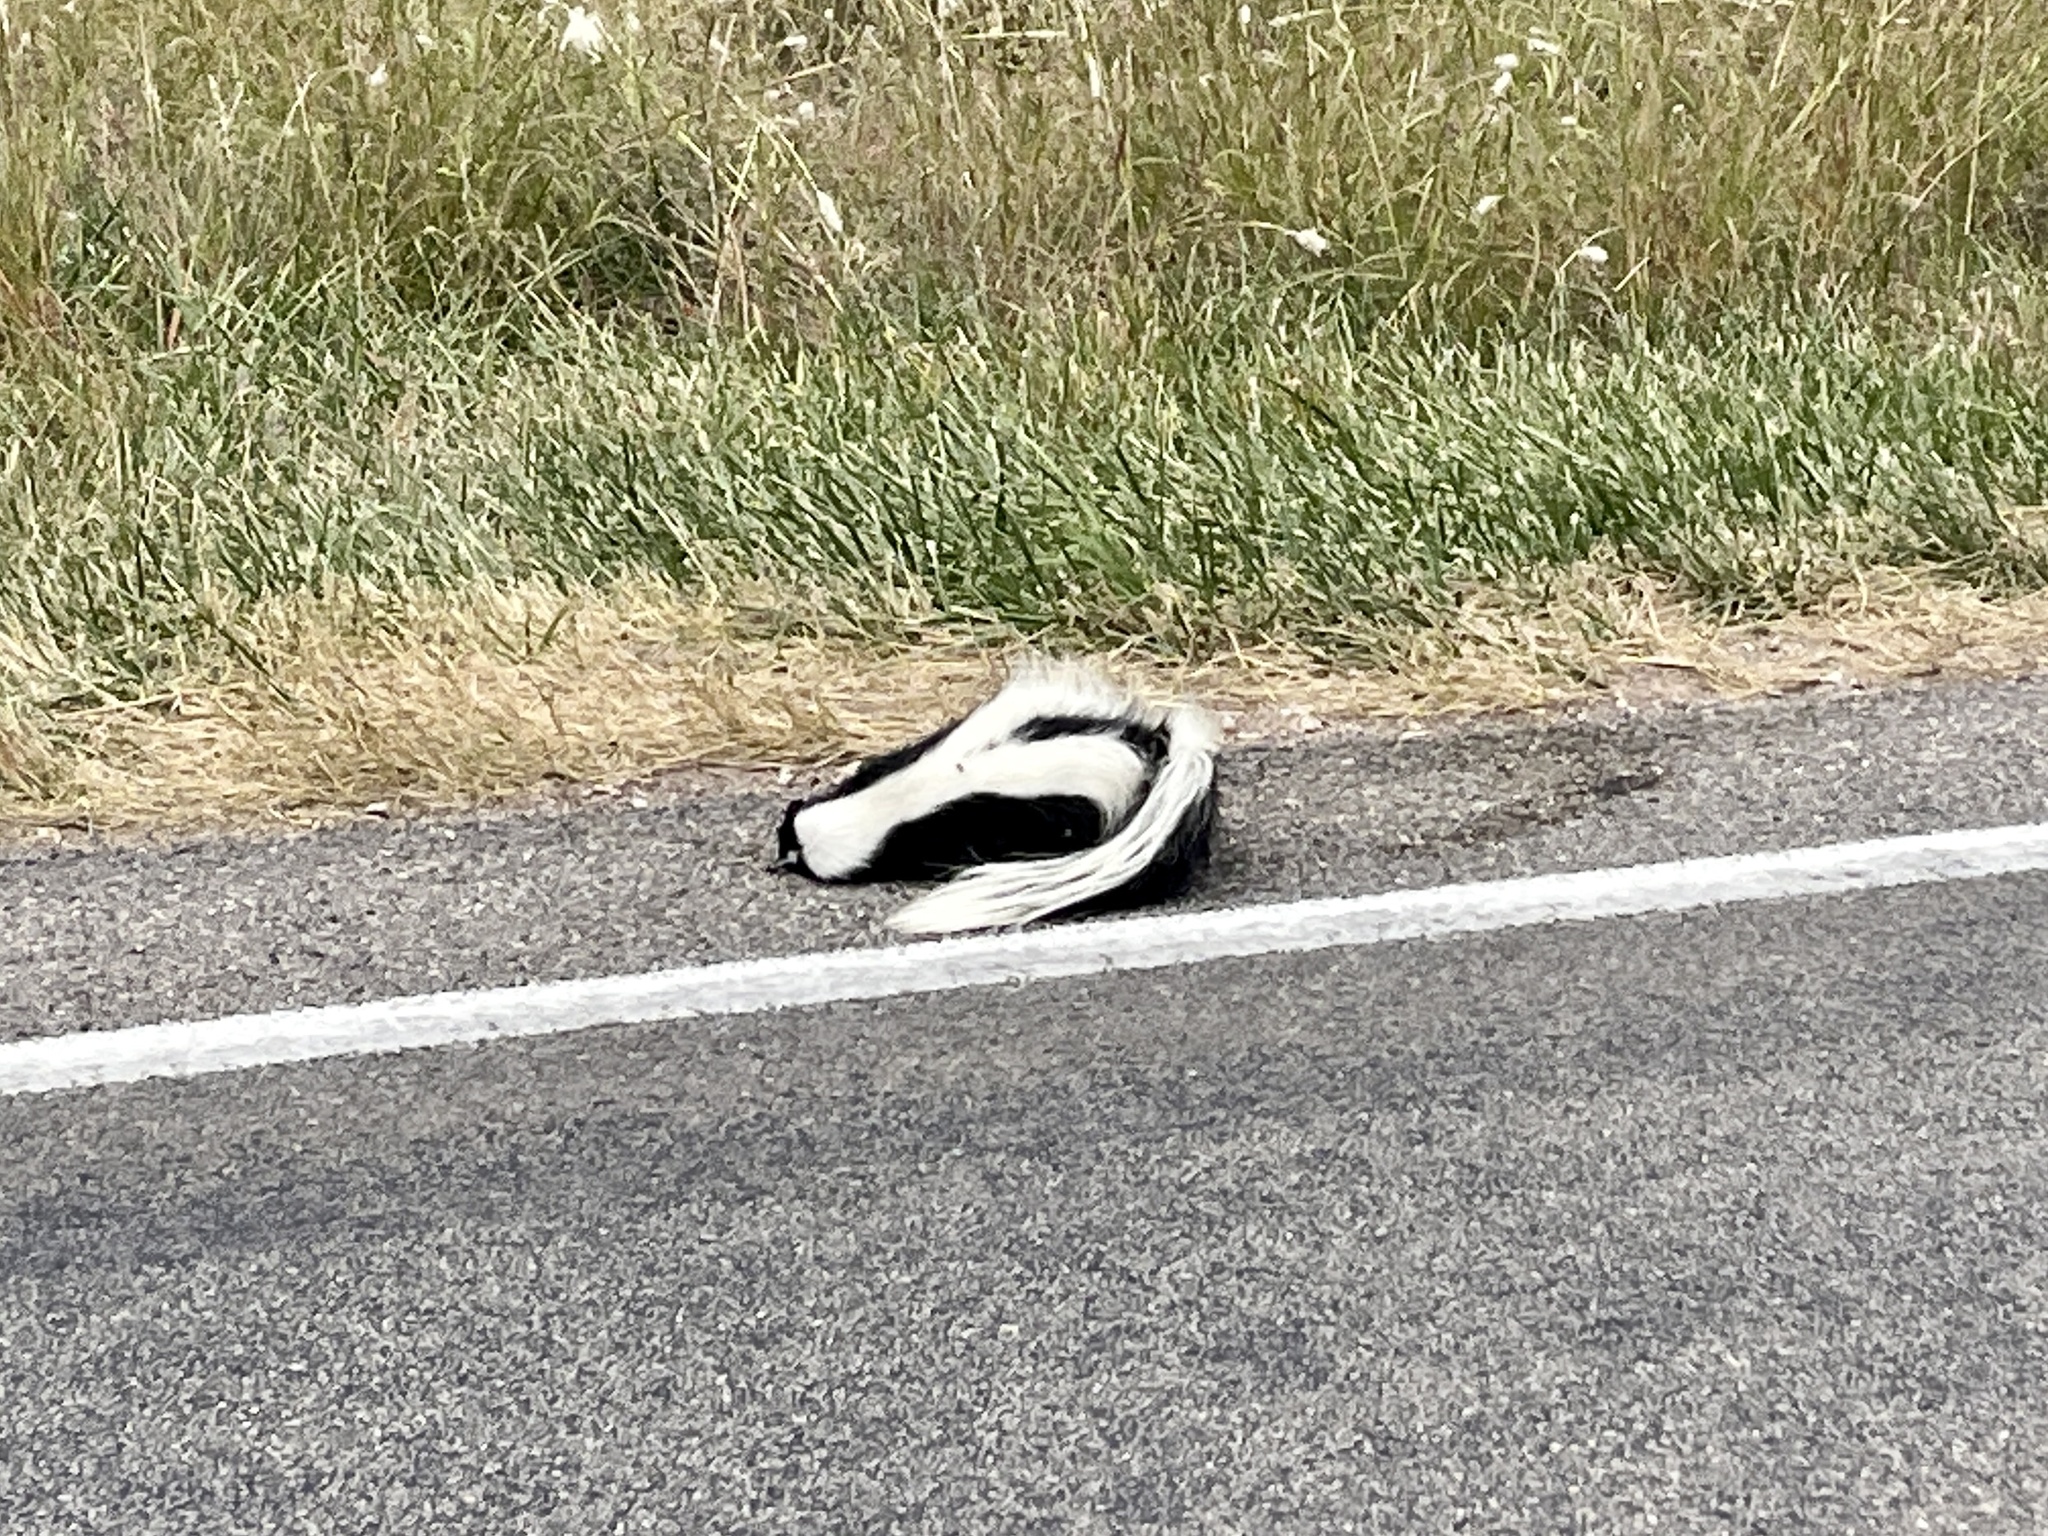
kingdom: Animalia
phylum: Chordata
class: Mammalia
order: Carnivora
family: Mephitidae
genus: Mephitis
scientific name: Mephitis mephitis
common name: Striped skunk
